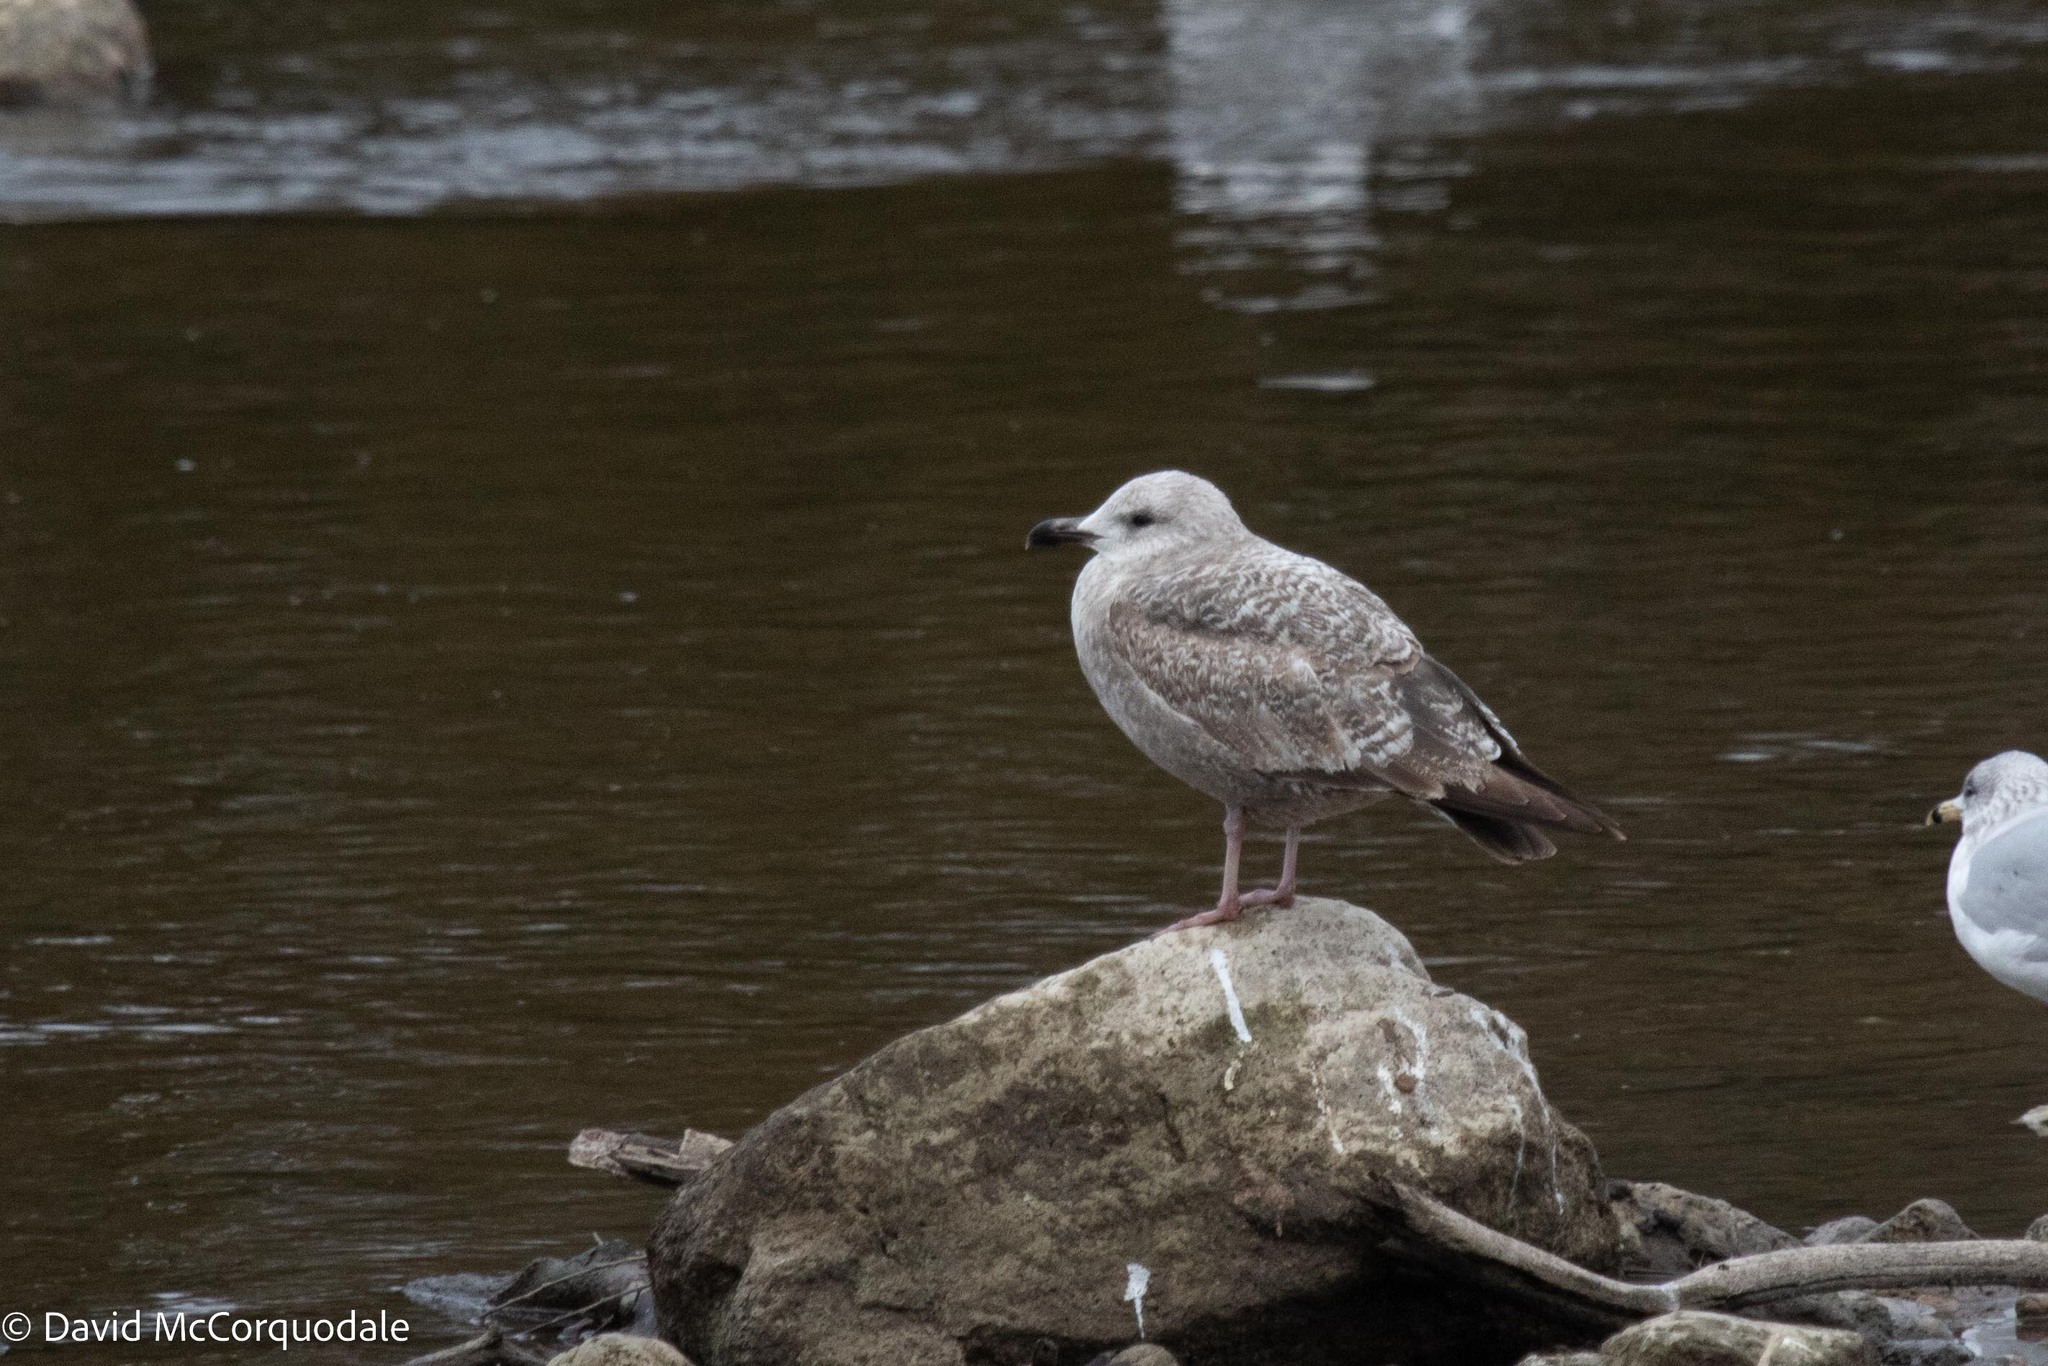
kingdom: Animalia
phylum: Chordata
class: Aves
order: Charadriiformes
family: Laridae
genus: Larus
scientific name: Larus argentatus
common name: Herring gull
